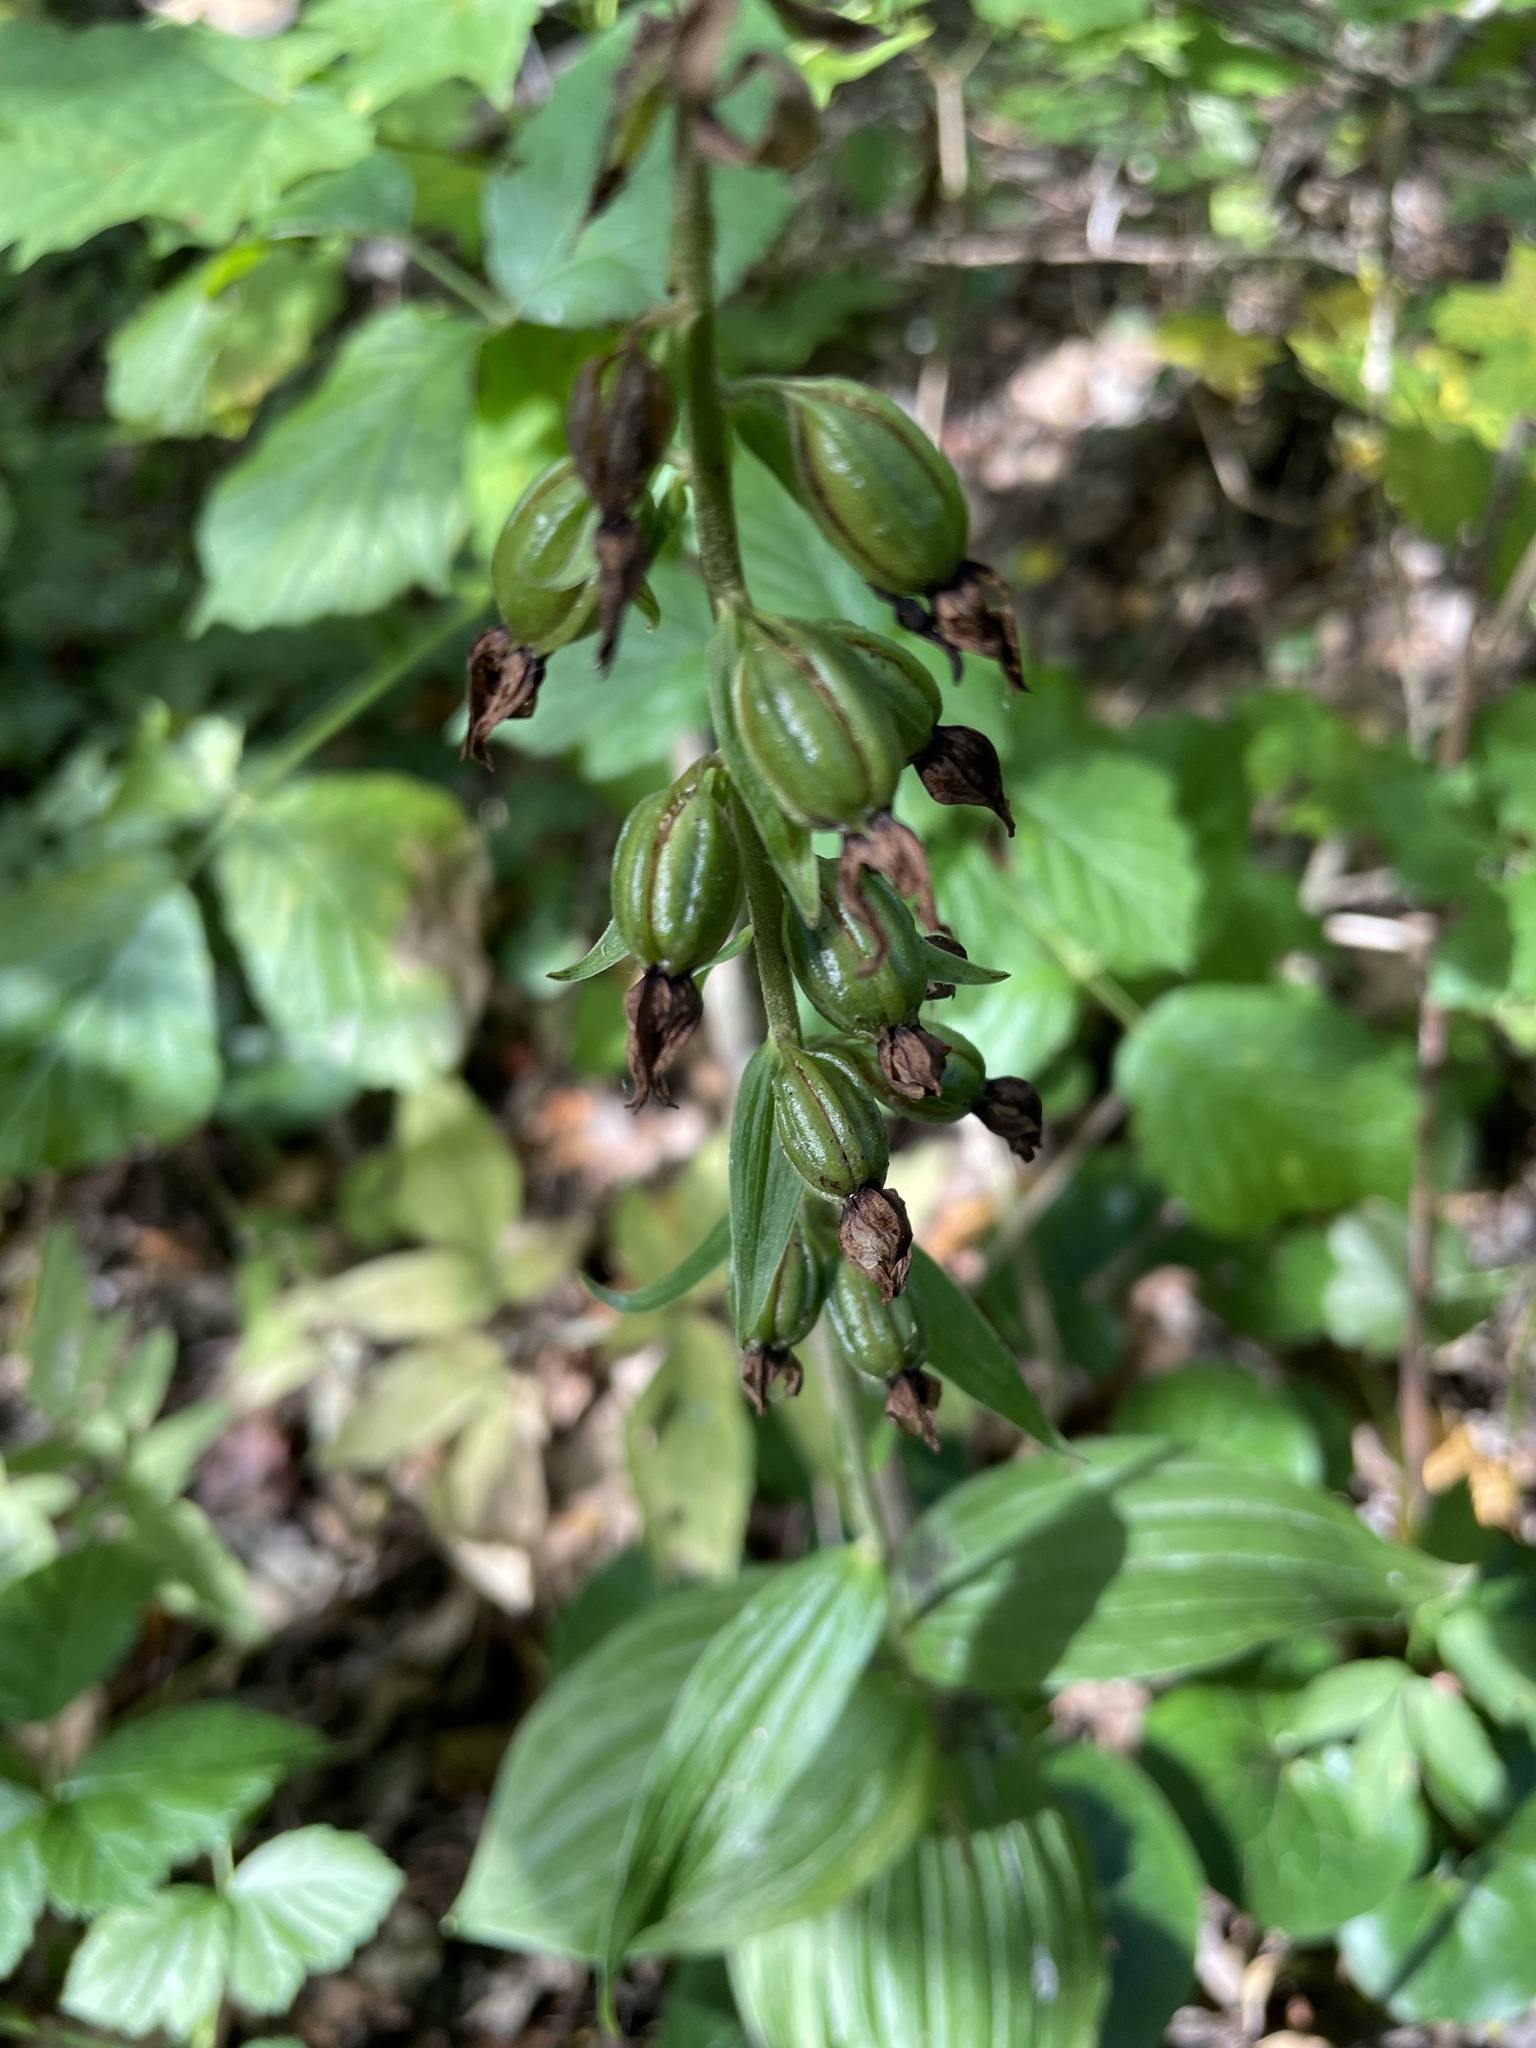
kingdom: Plantae
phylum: Tracheophyta
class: Liliopsida
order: Asparagales
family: Orchidaceae
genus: Epipactis
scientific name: Epipactis helleborine
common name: Broad-leaved helleborine
